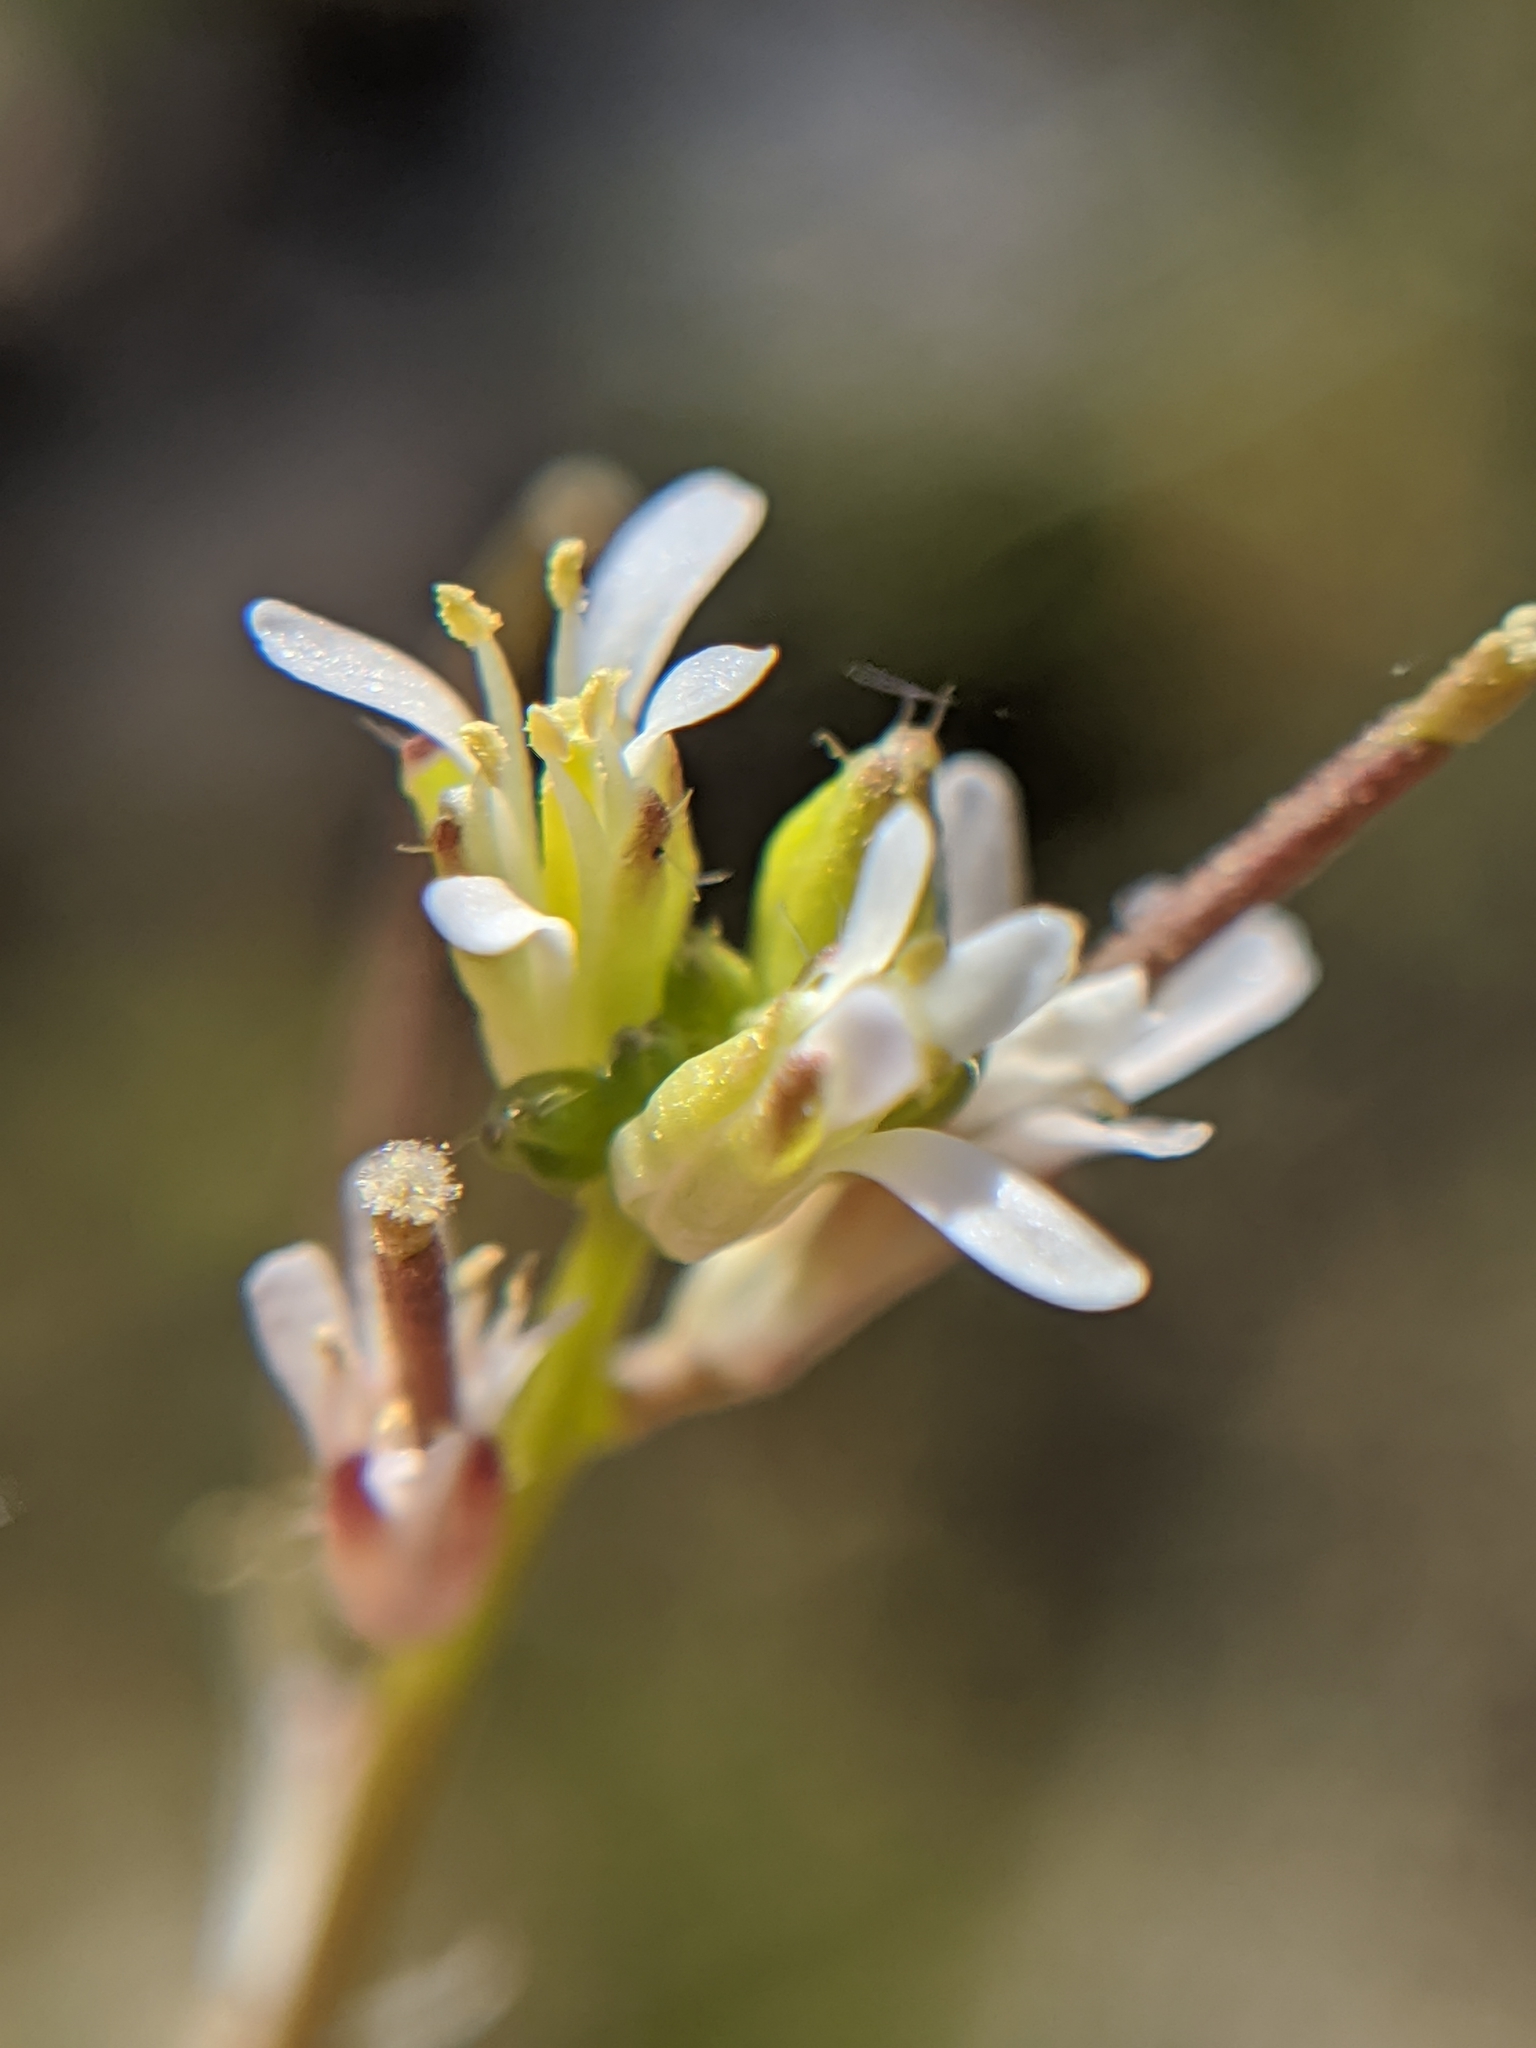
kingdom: Plantae
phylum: Tracheophyta
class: Magnoliopsida
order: Brassicales
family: Brassicaceae
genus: Streptanthus
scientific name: Streptanthus lasiophyllus
